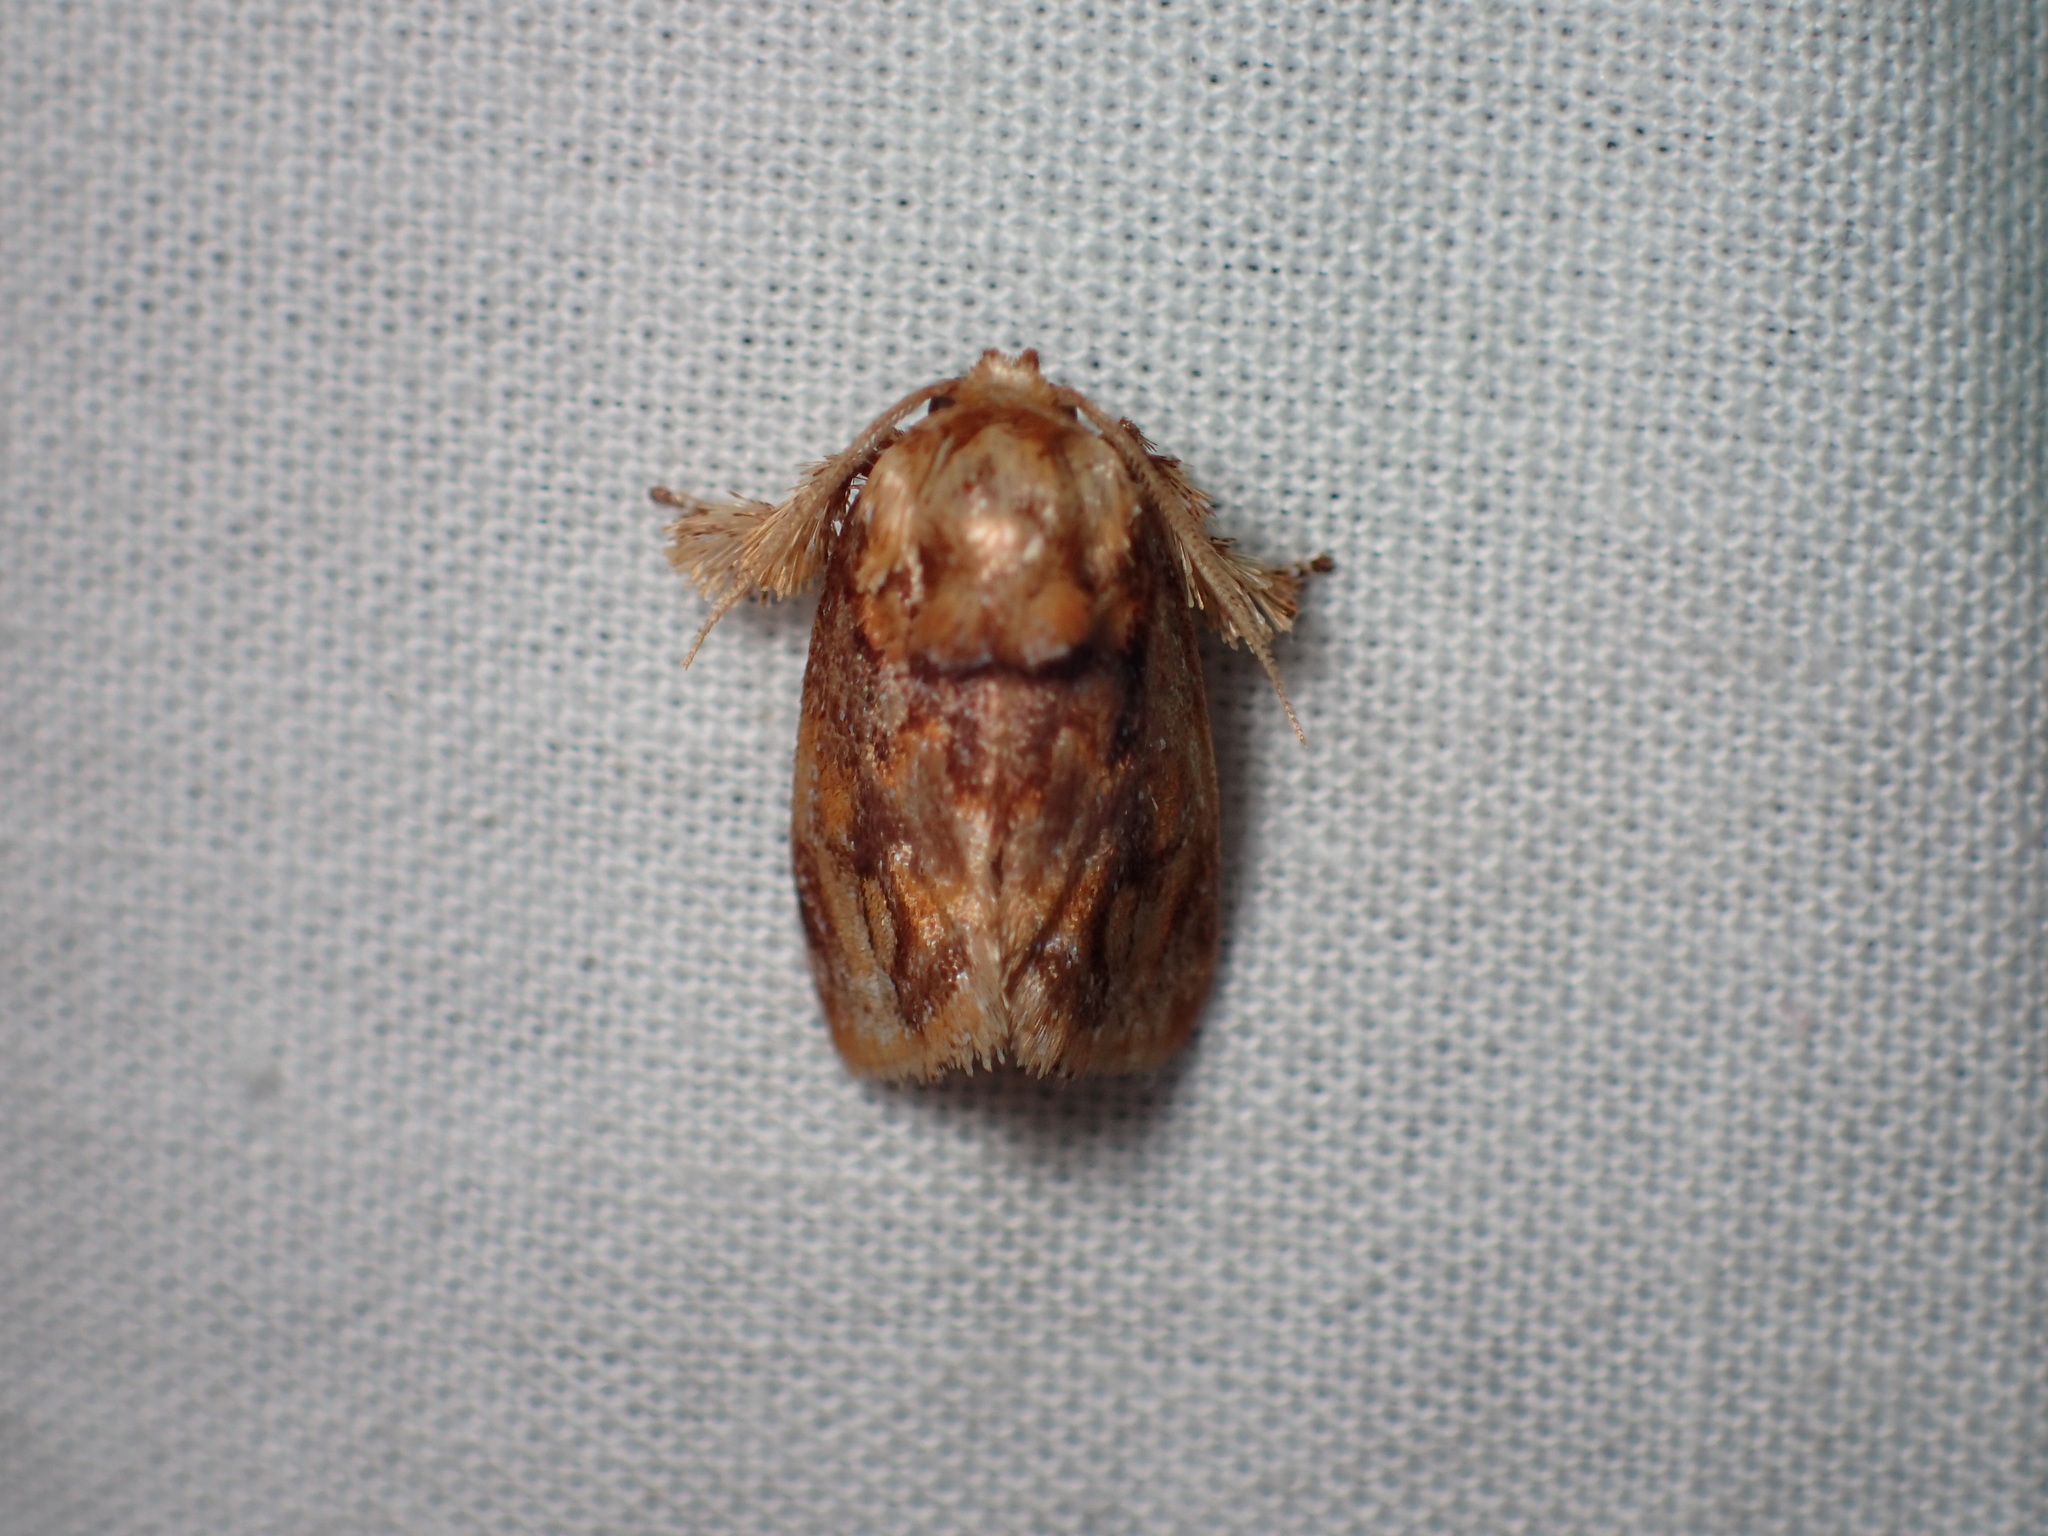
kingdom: Animalia
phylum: Arthropoda
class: Insecta
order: Lepidoptera
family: Limacodidae
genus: Isochaetes
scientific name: Isochaetes beutenmuelleri
